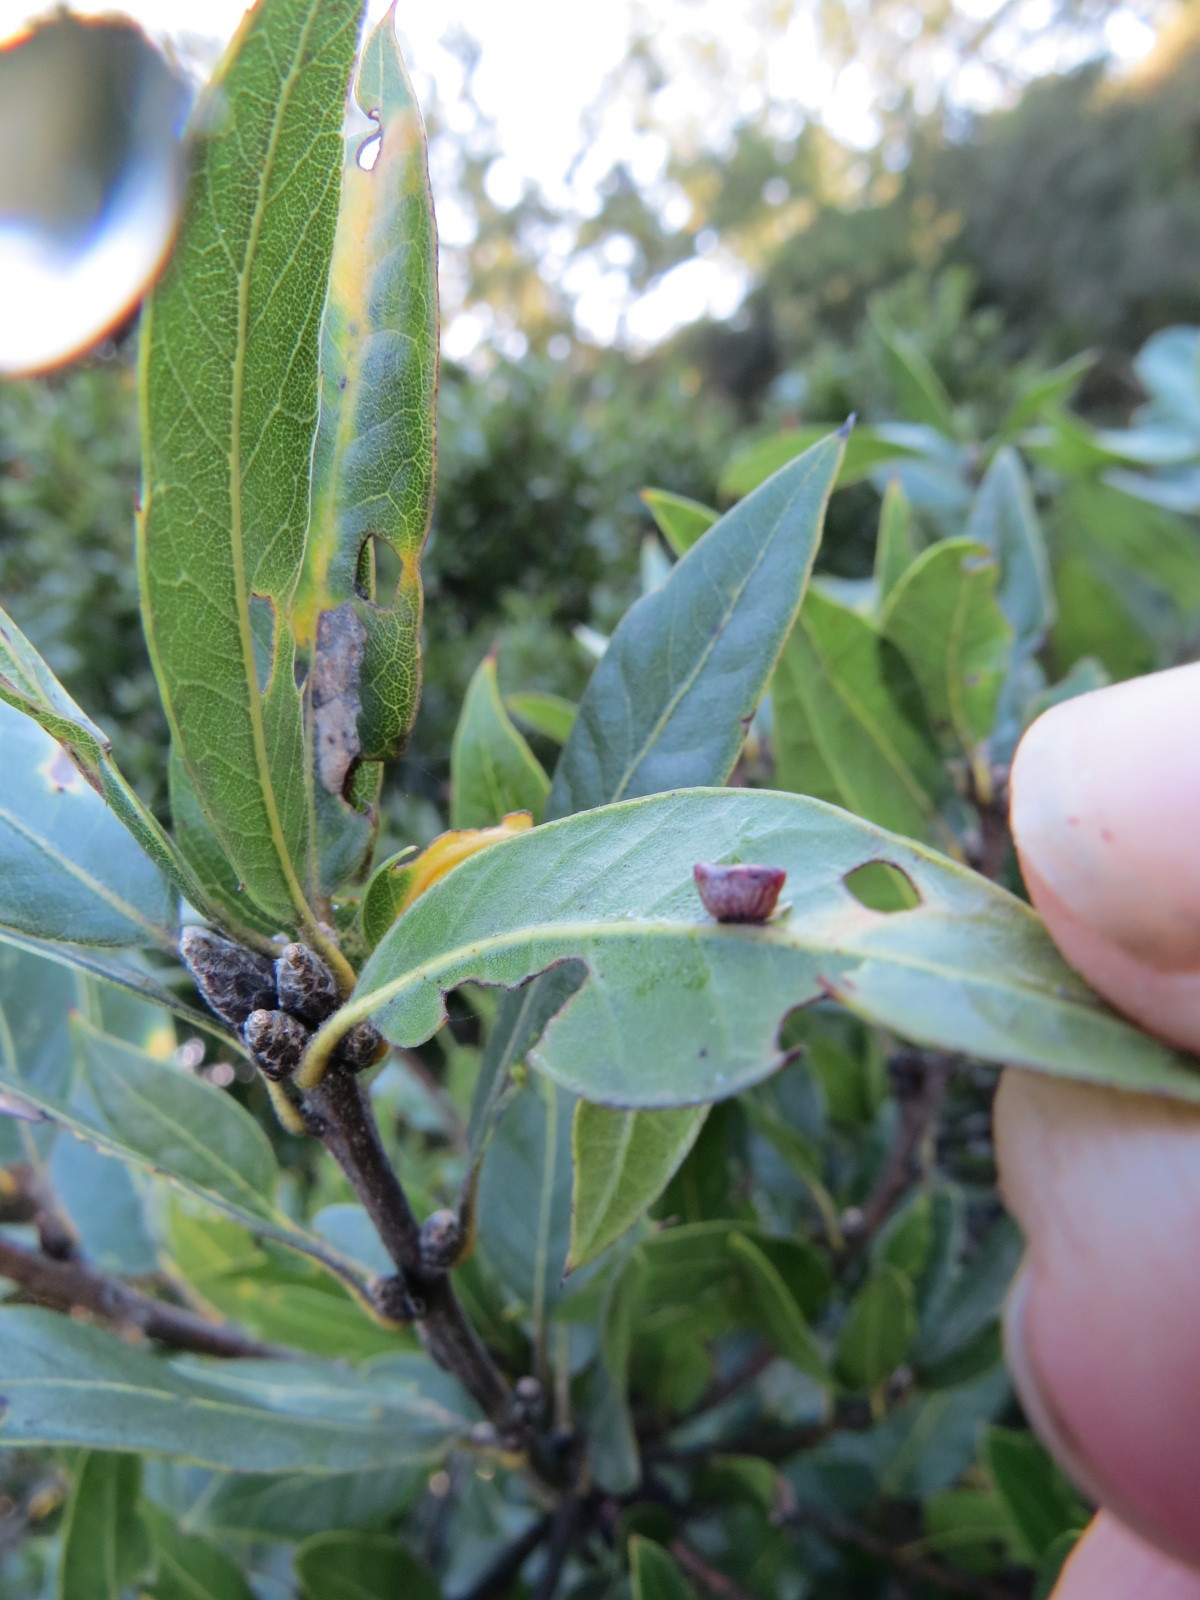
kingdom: Animalia
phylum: Arthropoda
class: Insecta
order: Hymenoptera
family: Cynipidae
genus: Dryocosmus
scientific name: Dryocosmus
